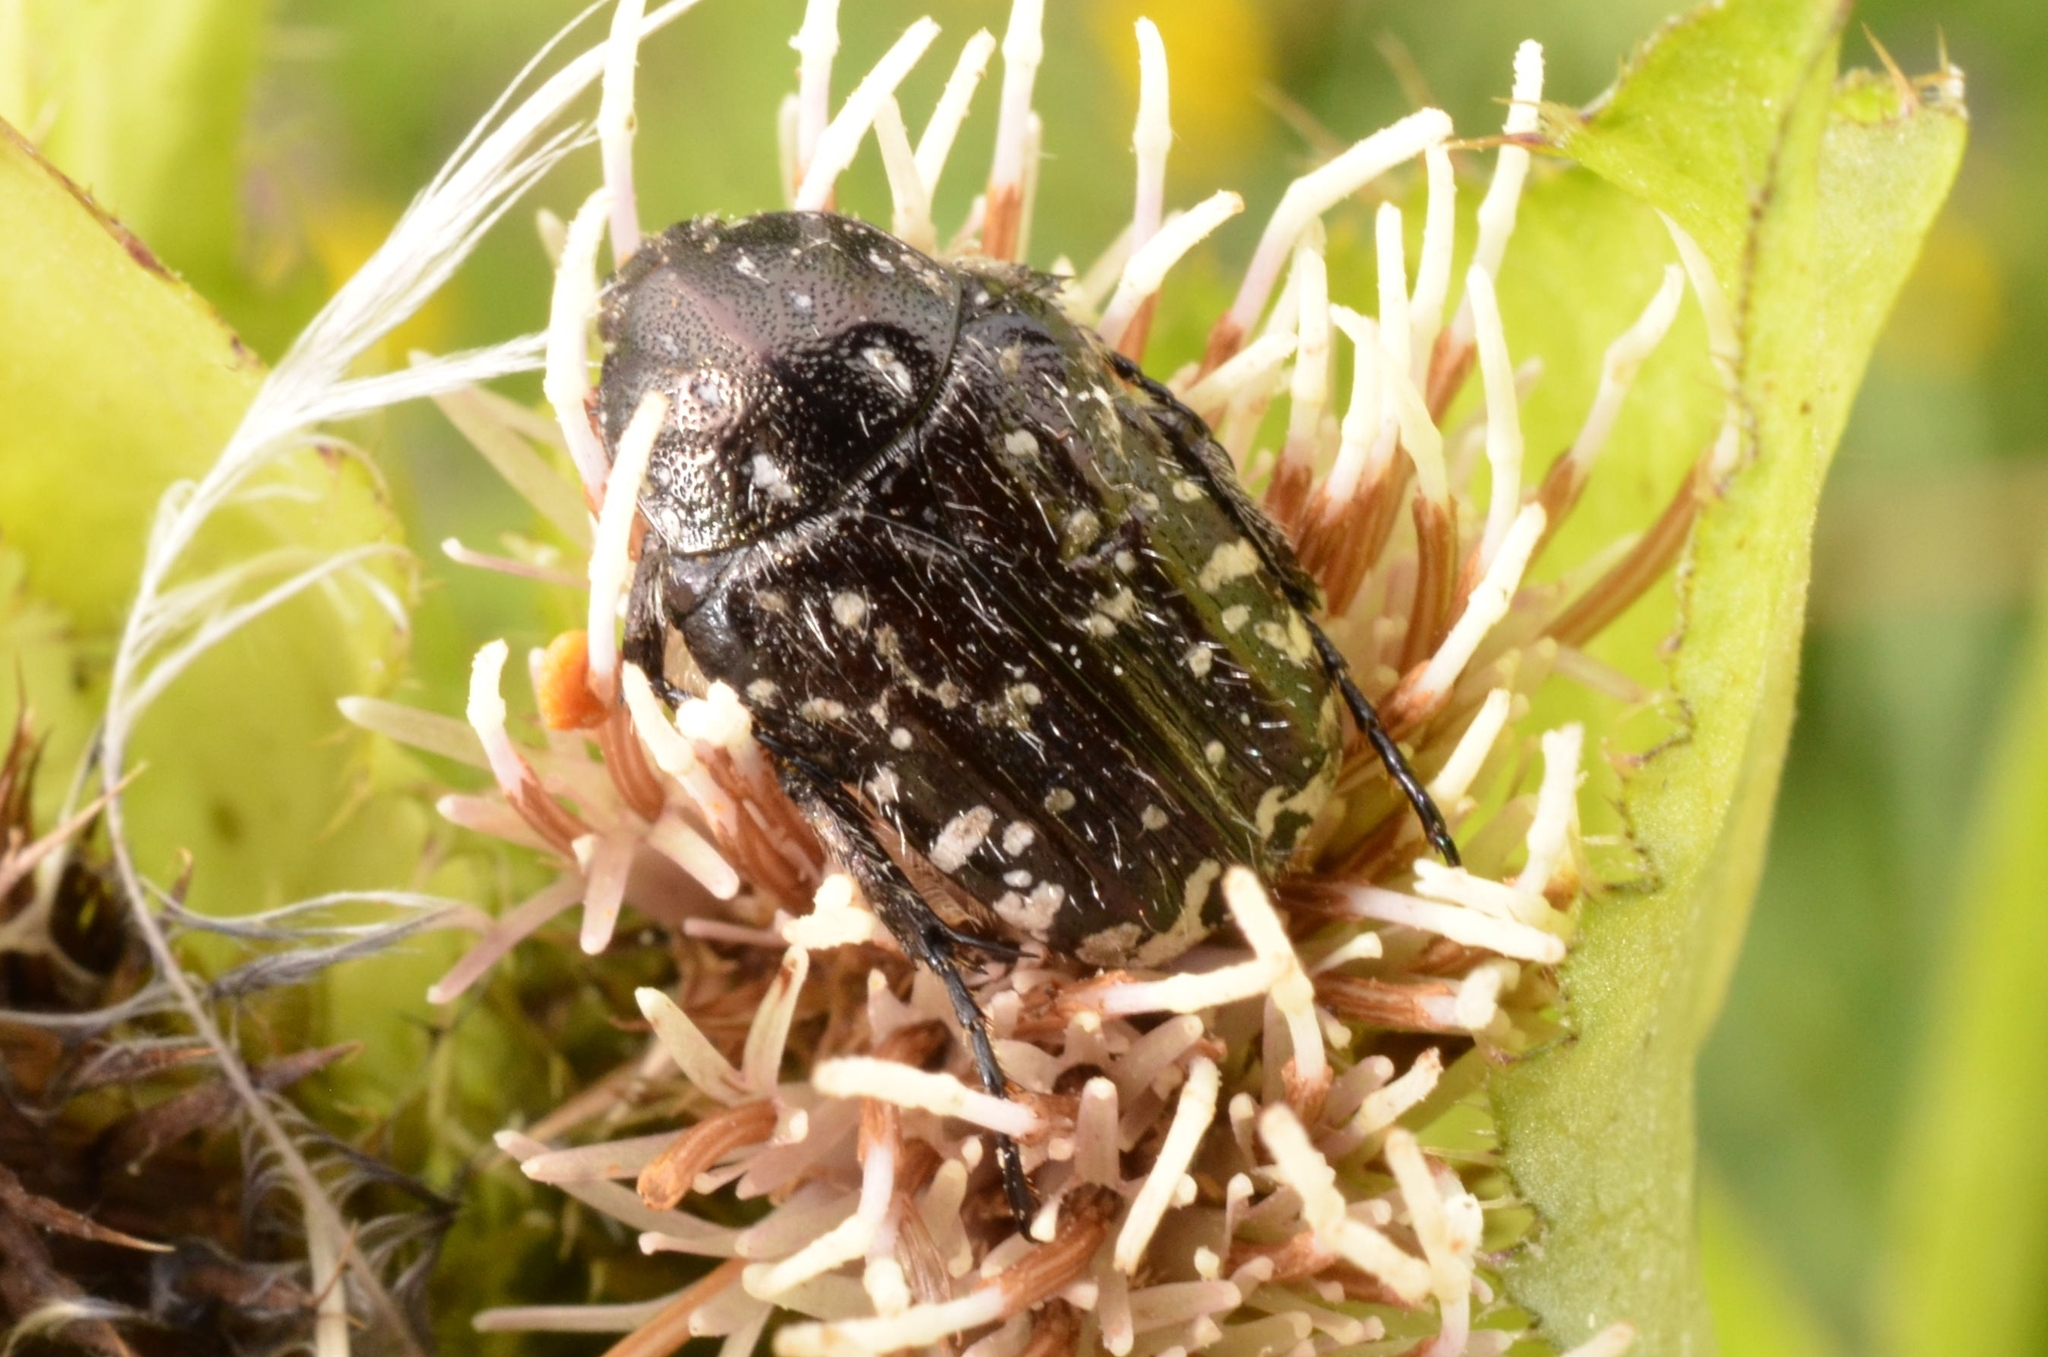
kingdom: Animalia
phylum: Arthropoda
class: Insecta
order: Coleoptera
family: Scarabaeidae
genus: Oxythyrea
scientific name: Oxythyrea funesta
